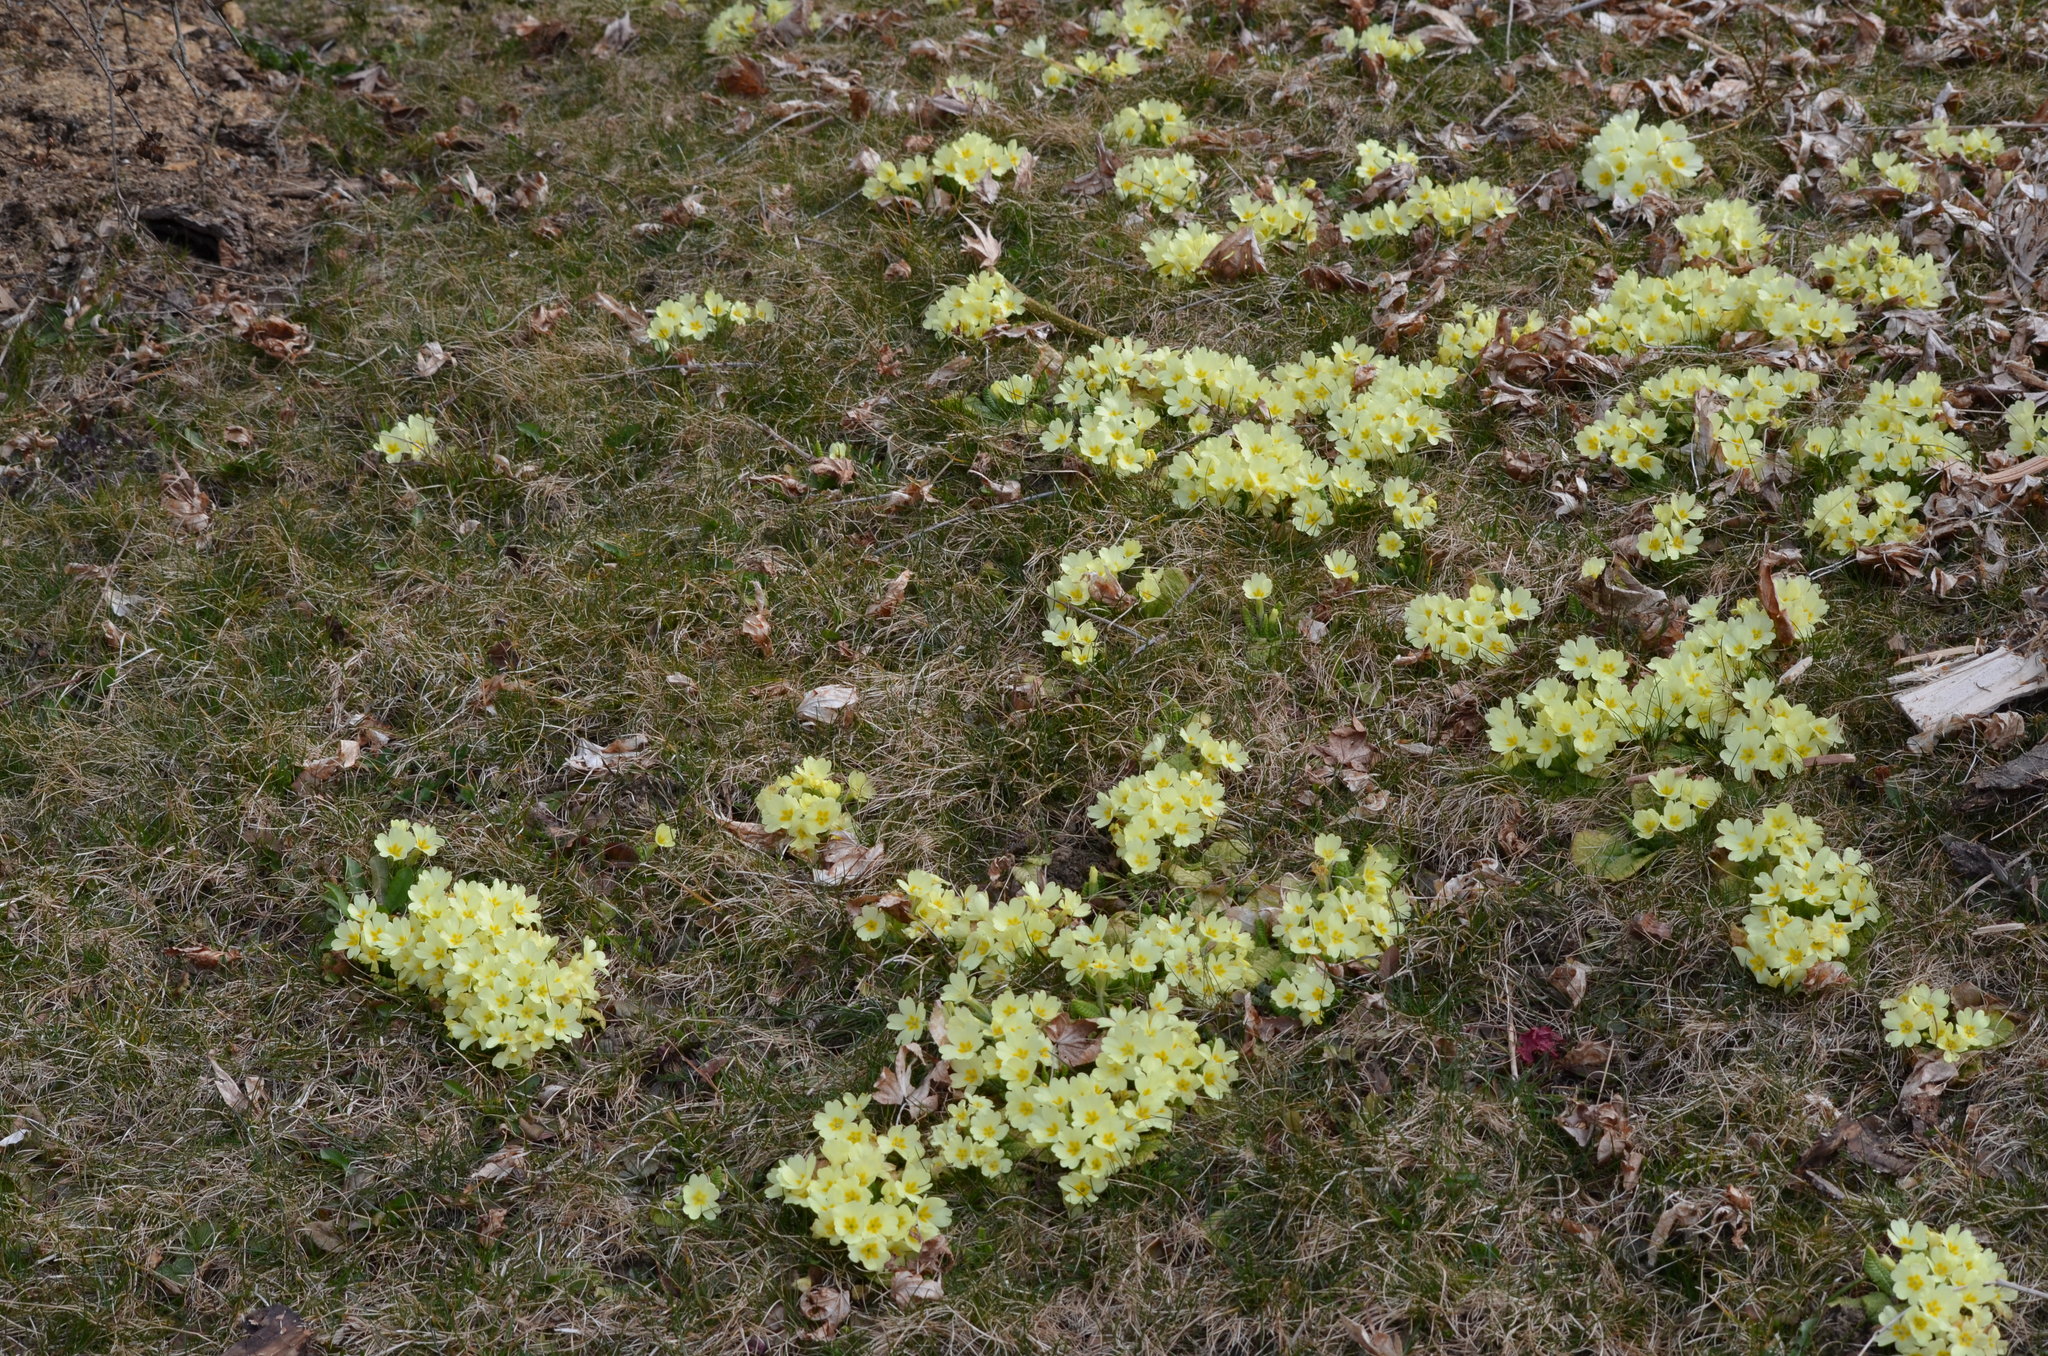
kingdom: Plantae
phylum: Tracheophyta
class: Magnoliopsida
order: Ericales
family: Primulaceae
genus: Primula
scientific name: Primula vulgaris
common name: Primrose
